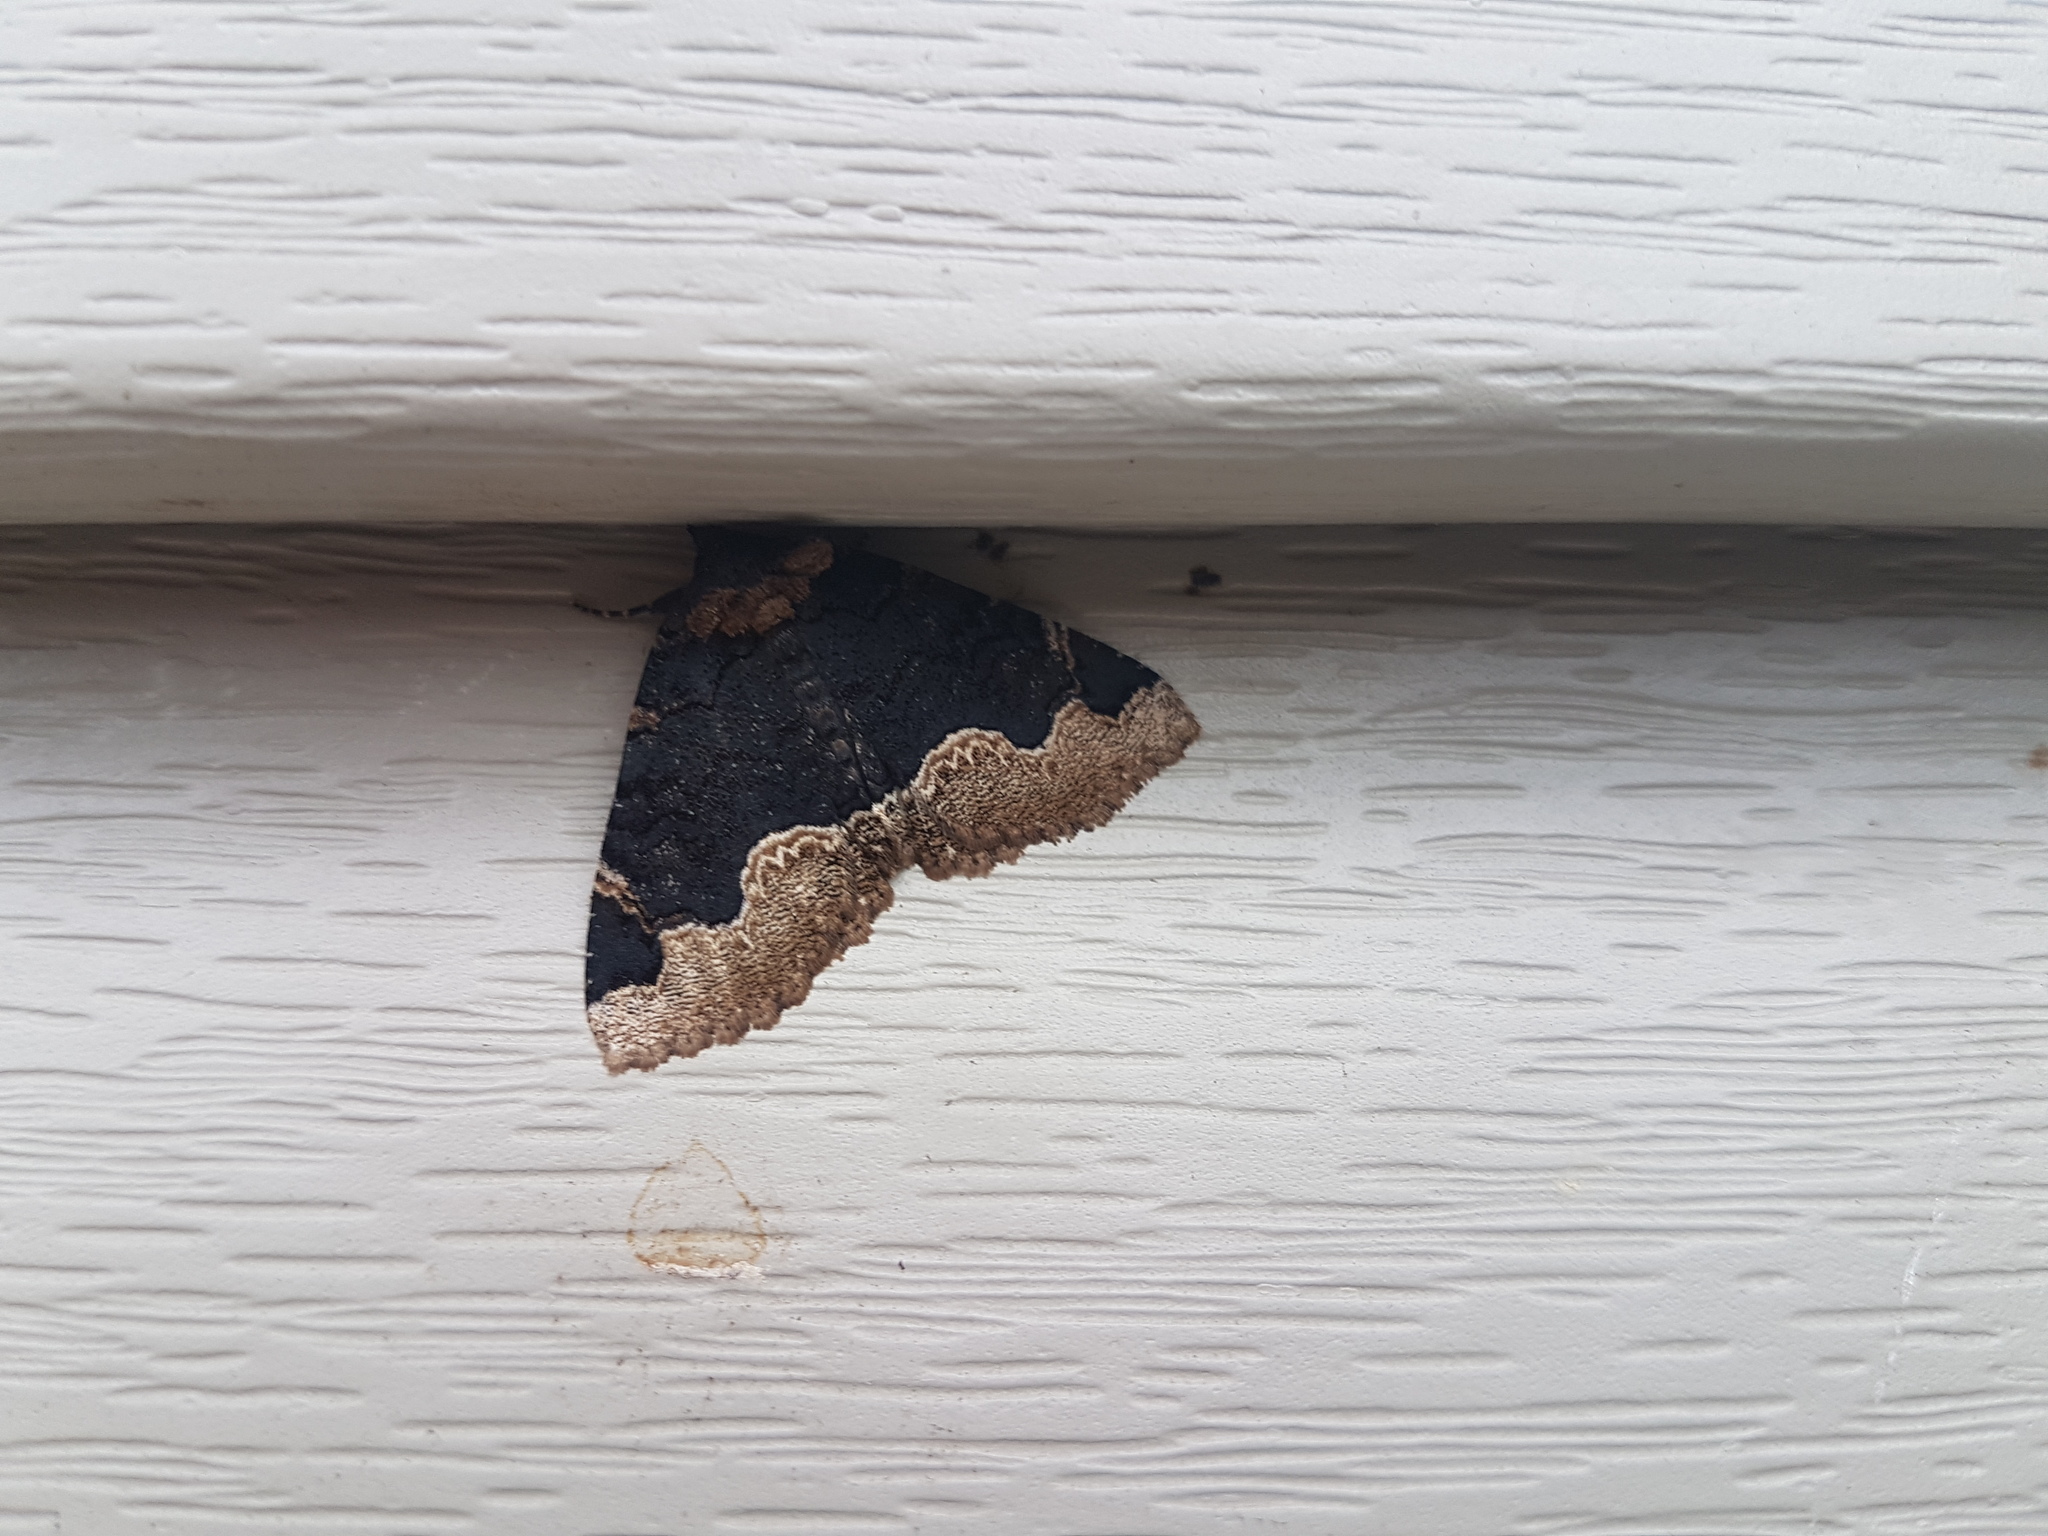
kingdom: Animalia
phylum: Arthropoda
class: Insecta
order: Lepidoptera
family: Erebidae
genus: Zale
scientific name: Zale horrida
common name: Horrid zale moth
